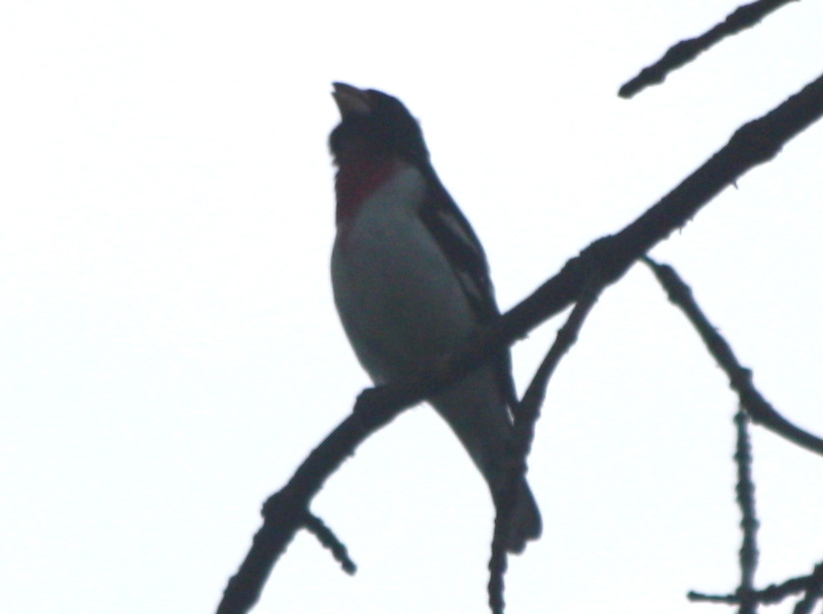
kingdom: Animalia
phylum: Chordata
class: Aves
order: Passeriformes
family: Cardinalidae
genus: Pheucticus
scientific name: Pheucticus ludovicianus
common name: Rose-breasted grosbeak
